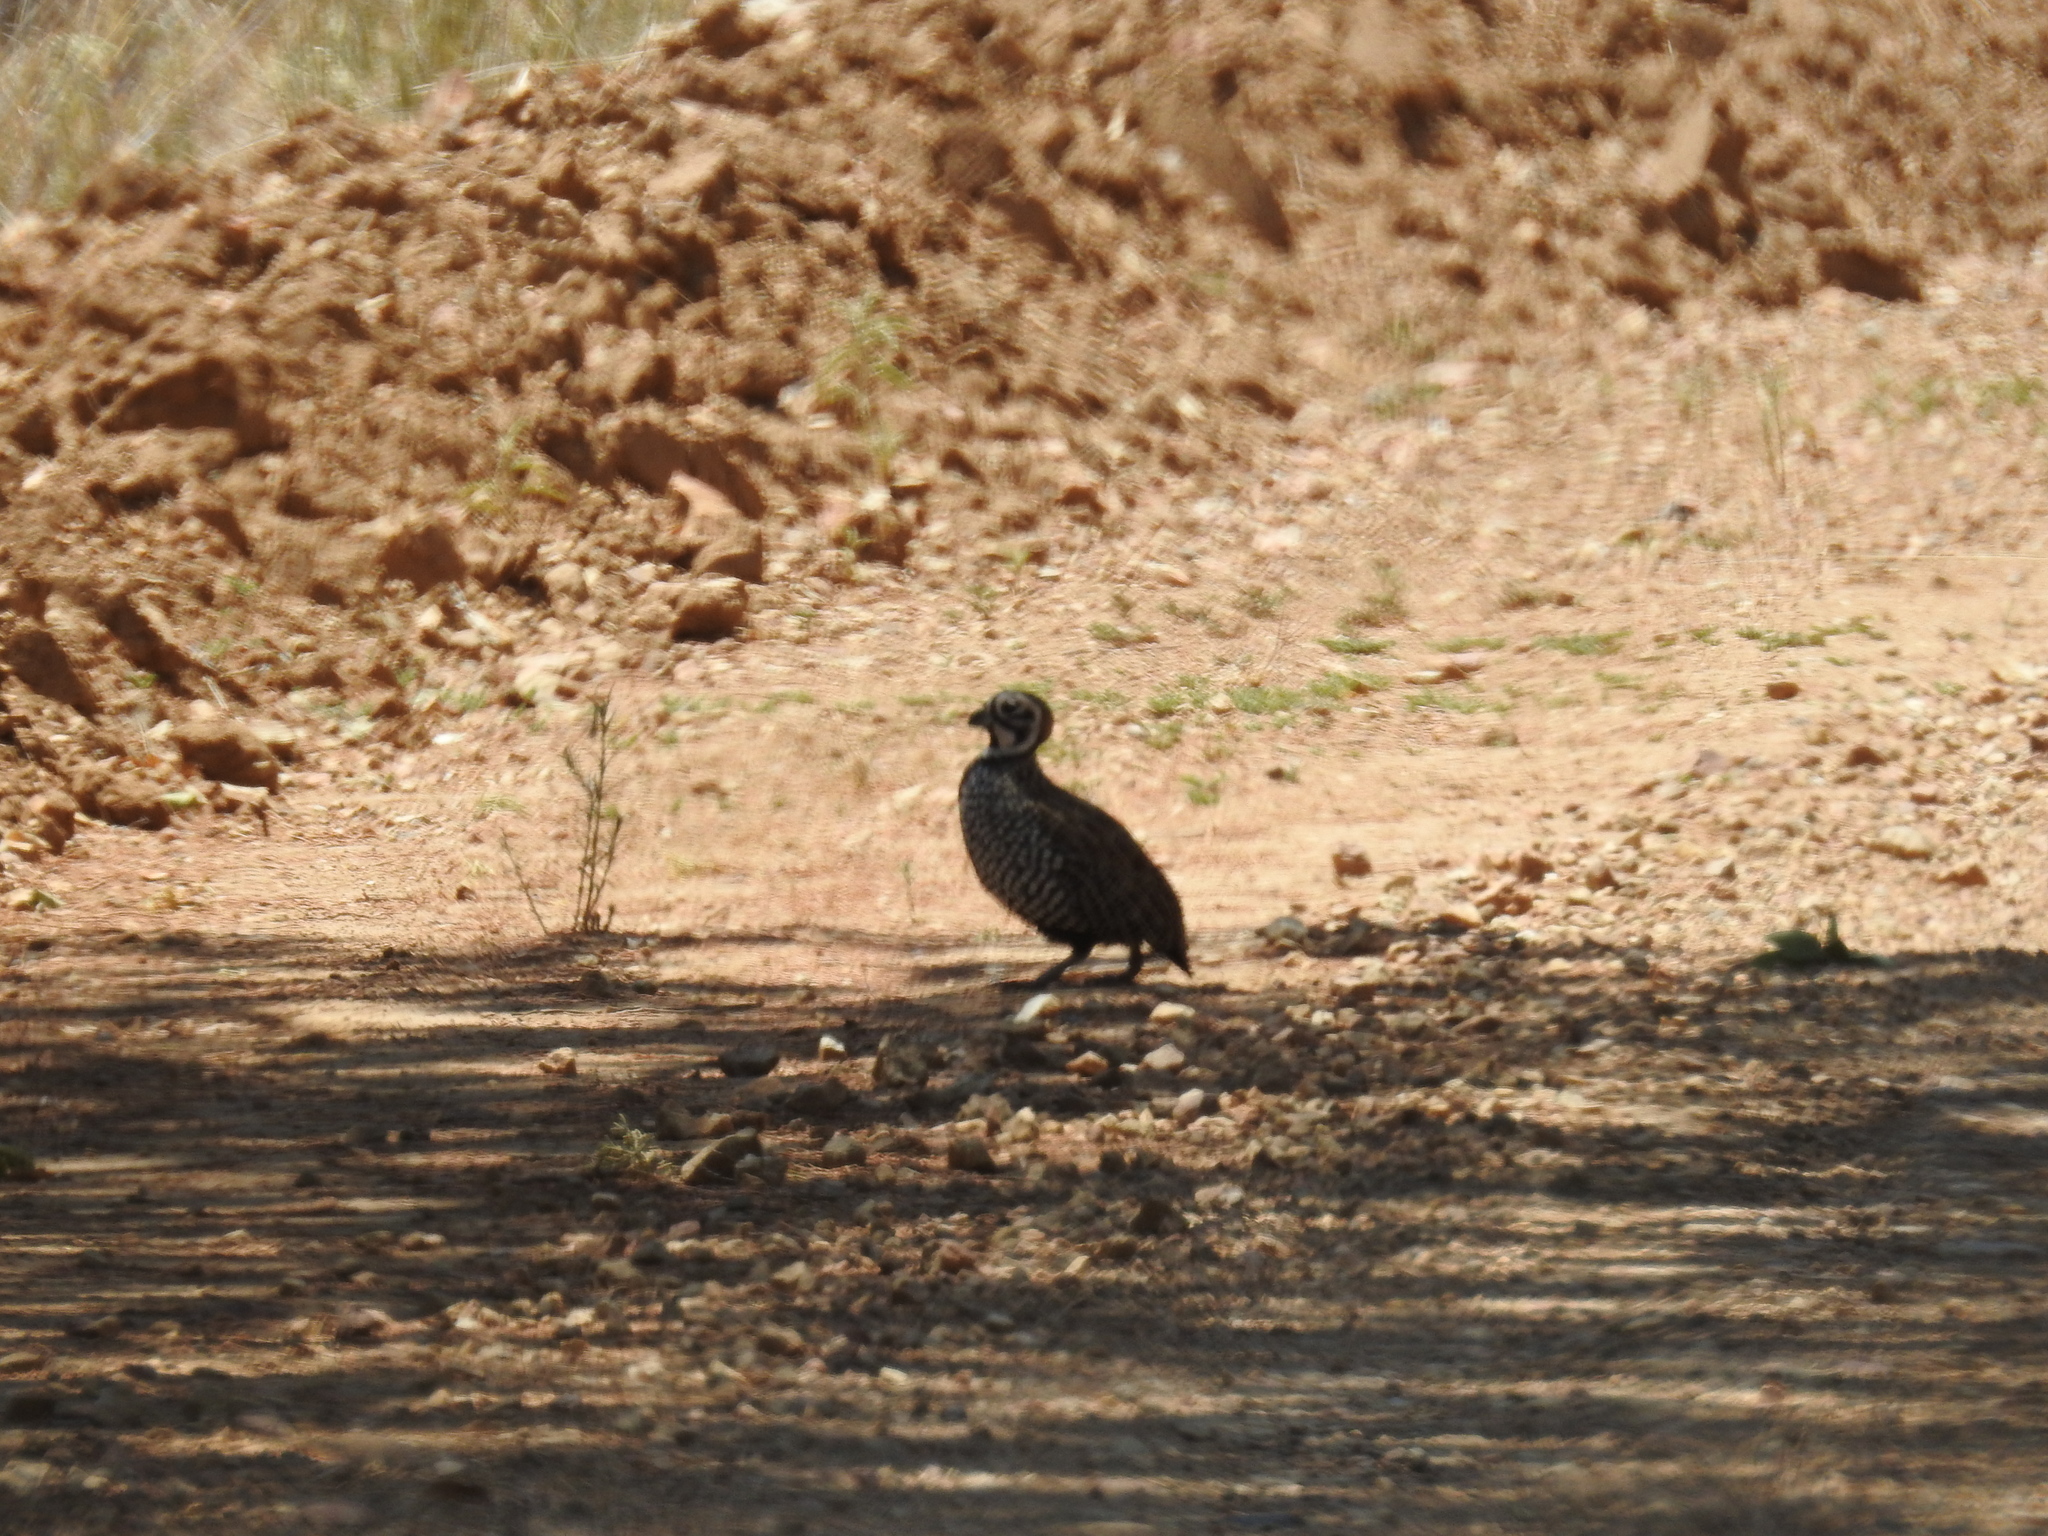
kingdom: Animalia
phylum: Chordata
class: Aves
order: Galliformes
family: Odontophoridae
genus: Cyrtonyx
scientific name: Cyrtonyx montezumae
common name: Montezuma quail
